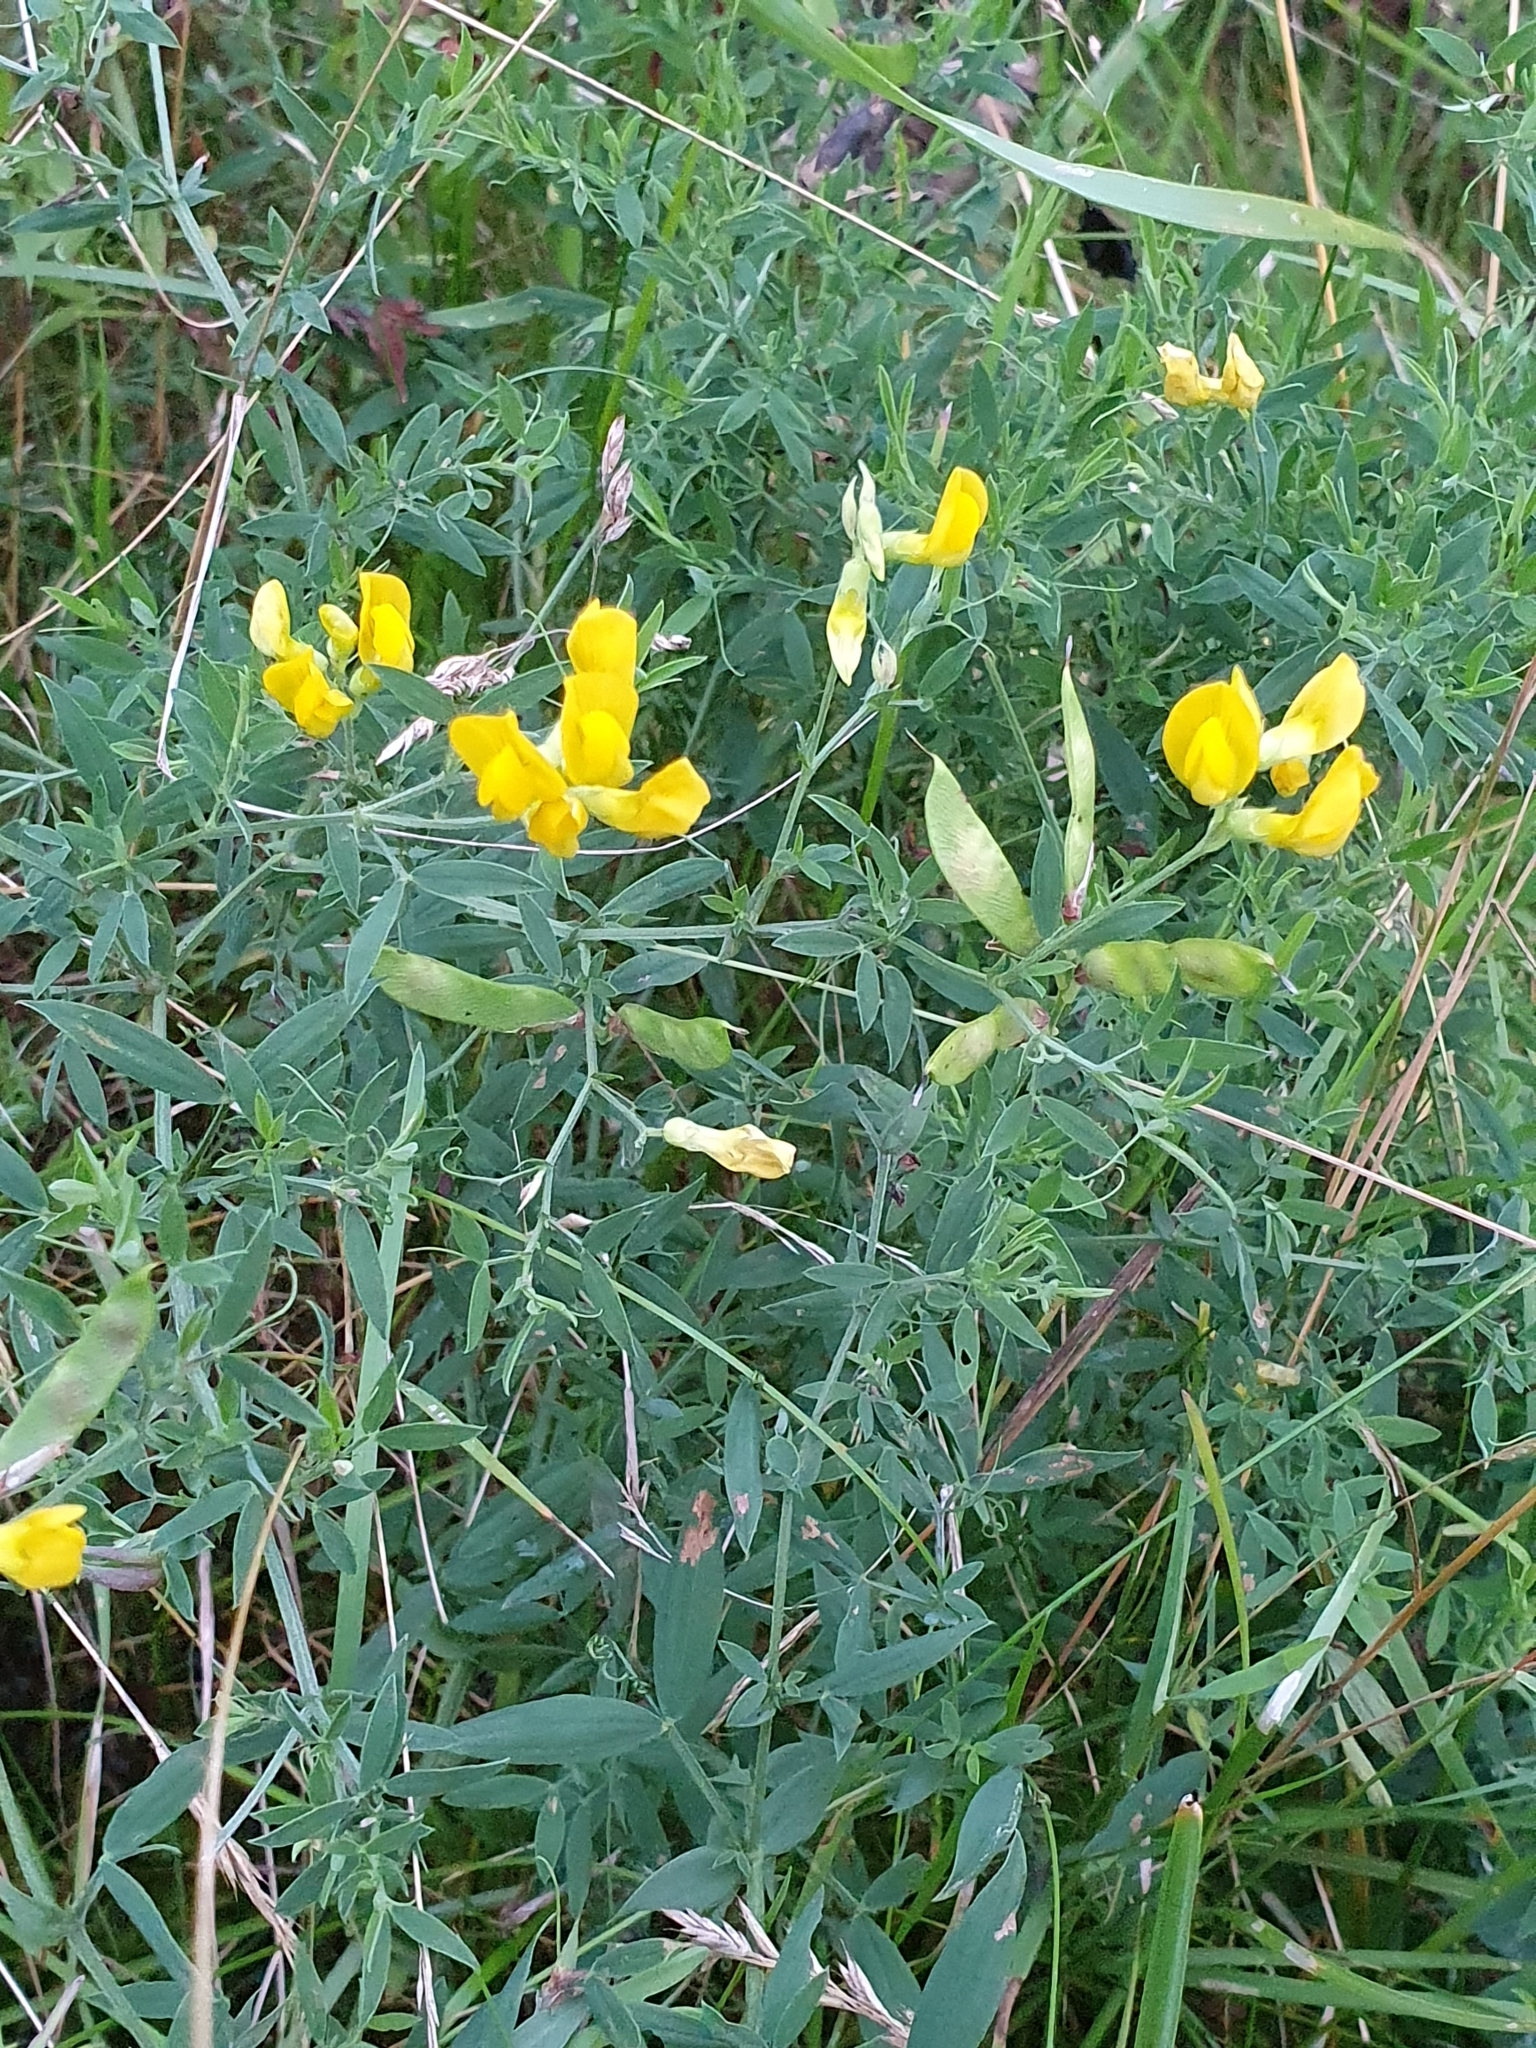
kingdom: Plantae
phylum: Tracheophyta
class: Magnoliopsida
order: Fabales
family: Fabaceae
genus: Lathyrus
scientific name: Lathyrus pratensis
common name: Meadow vetchling
